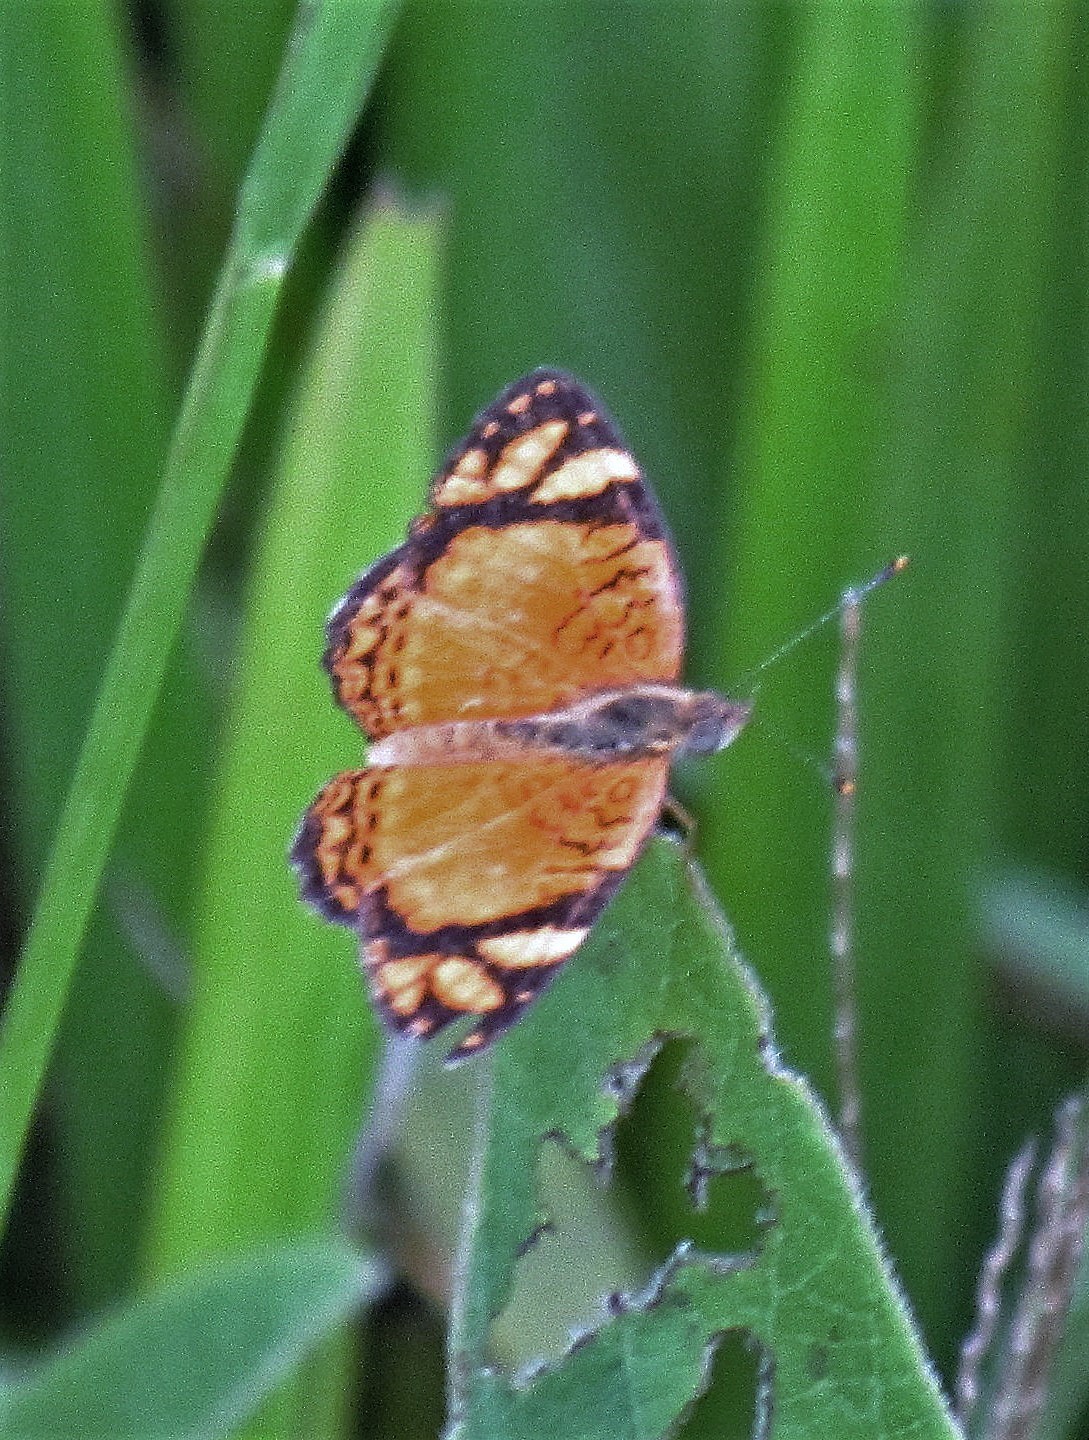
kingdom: Animalia
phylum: Arthropoda
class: Insecta
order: Lepidoptera
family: Nymphalidae
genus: Tegosa
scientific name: Tegosa orobia
